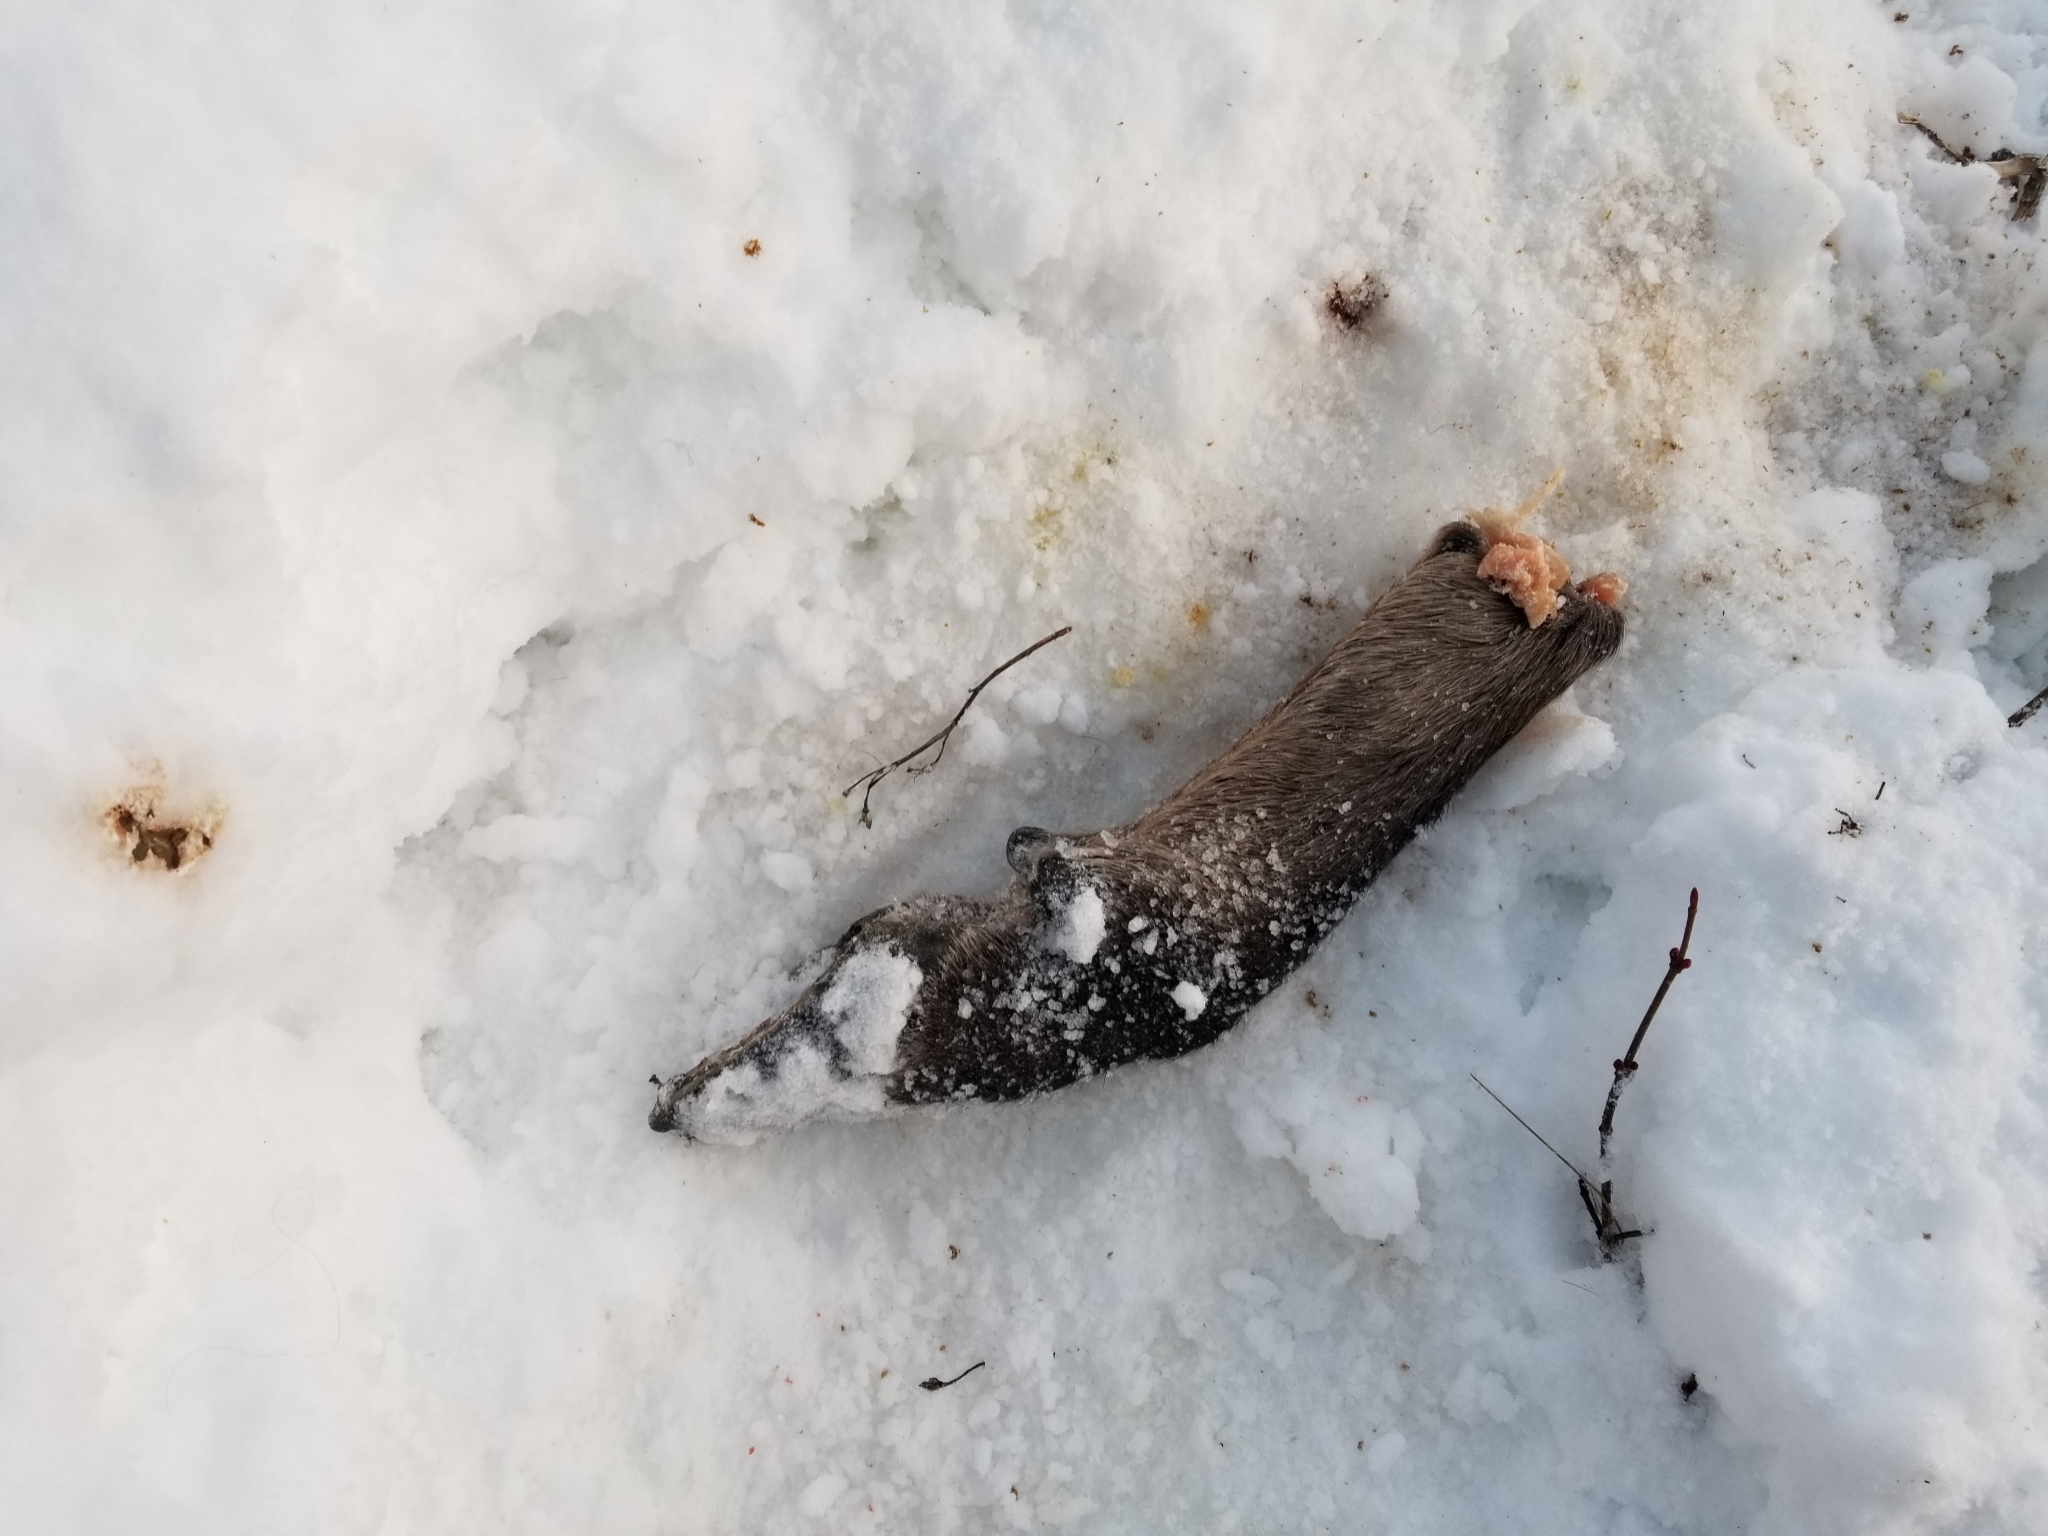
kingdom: Animalia
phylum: Chordata
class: Mammalia
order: Artiodactyla
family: Cervidae
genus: Alces
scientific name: Alces alces
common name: Moose
